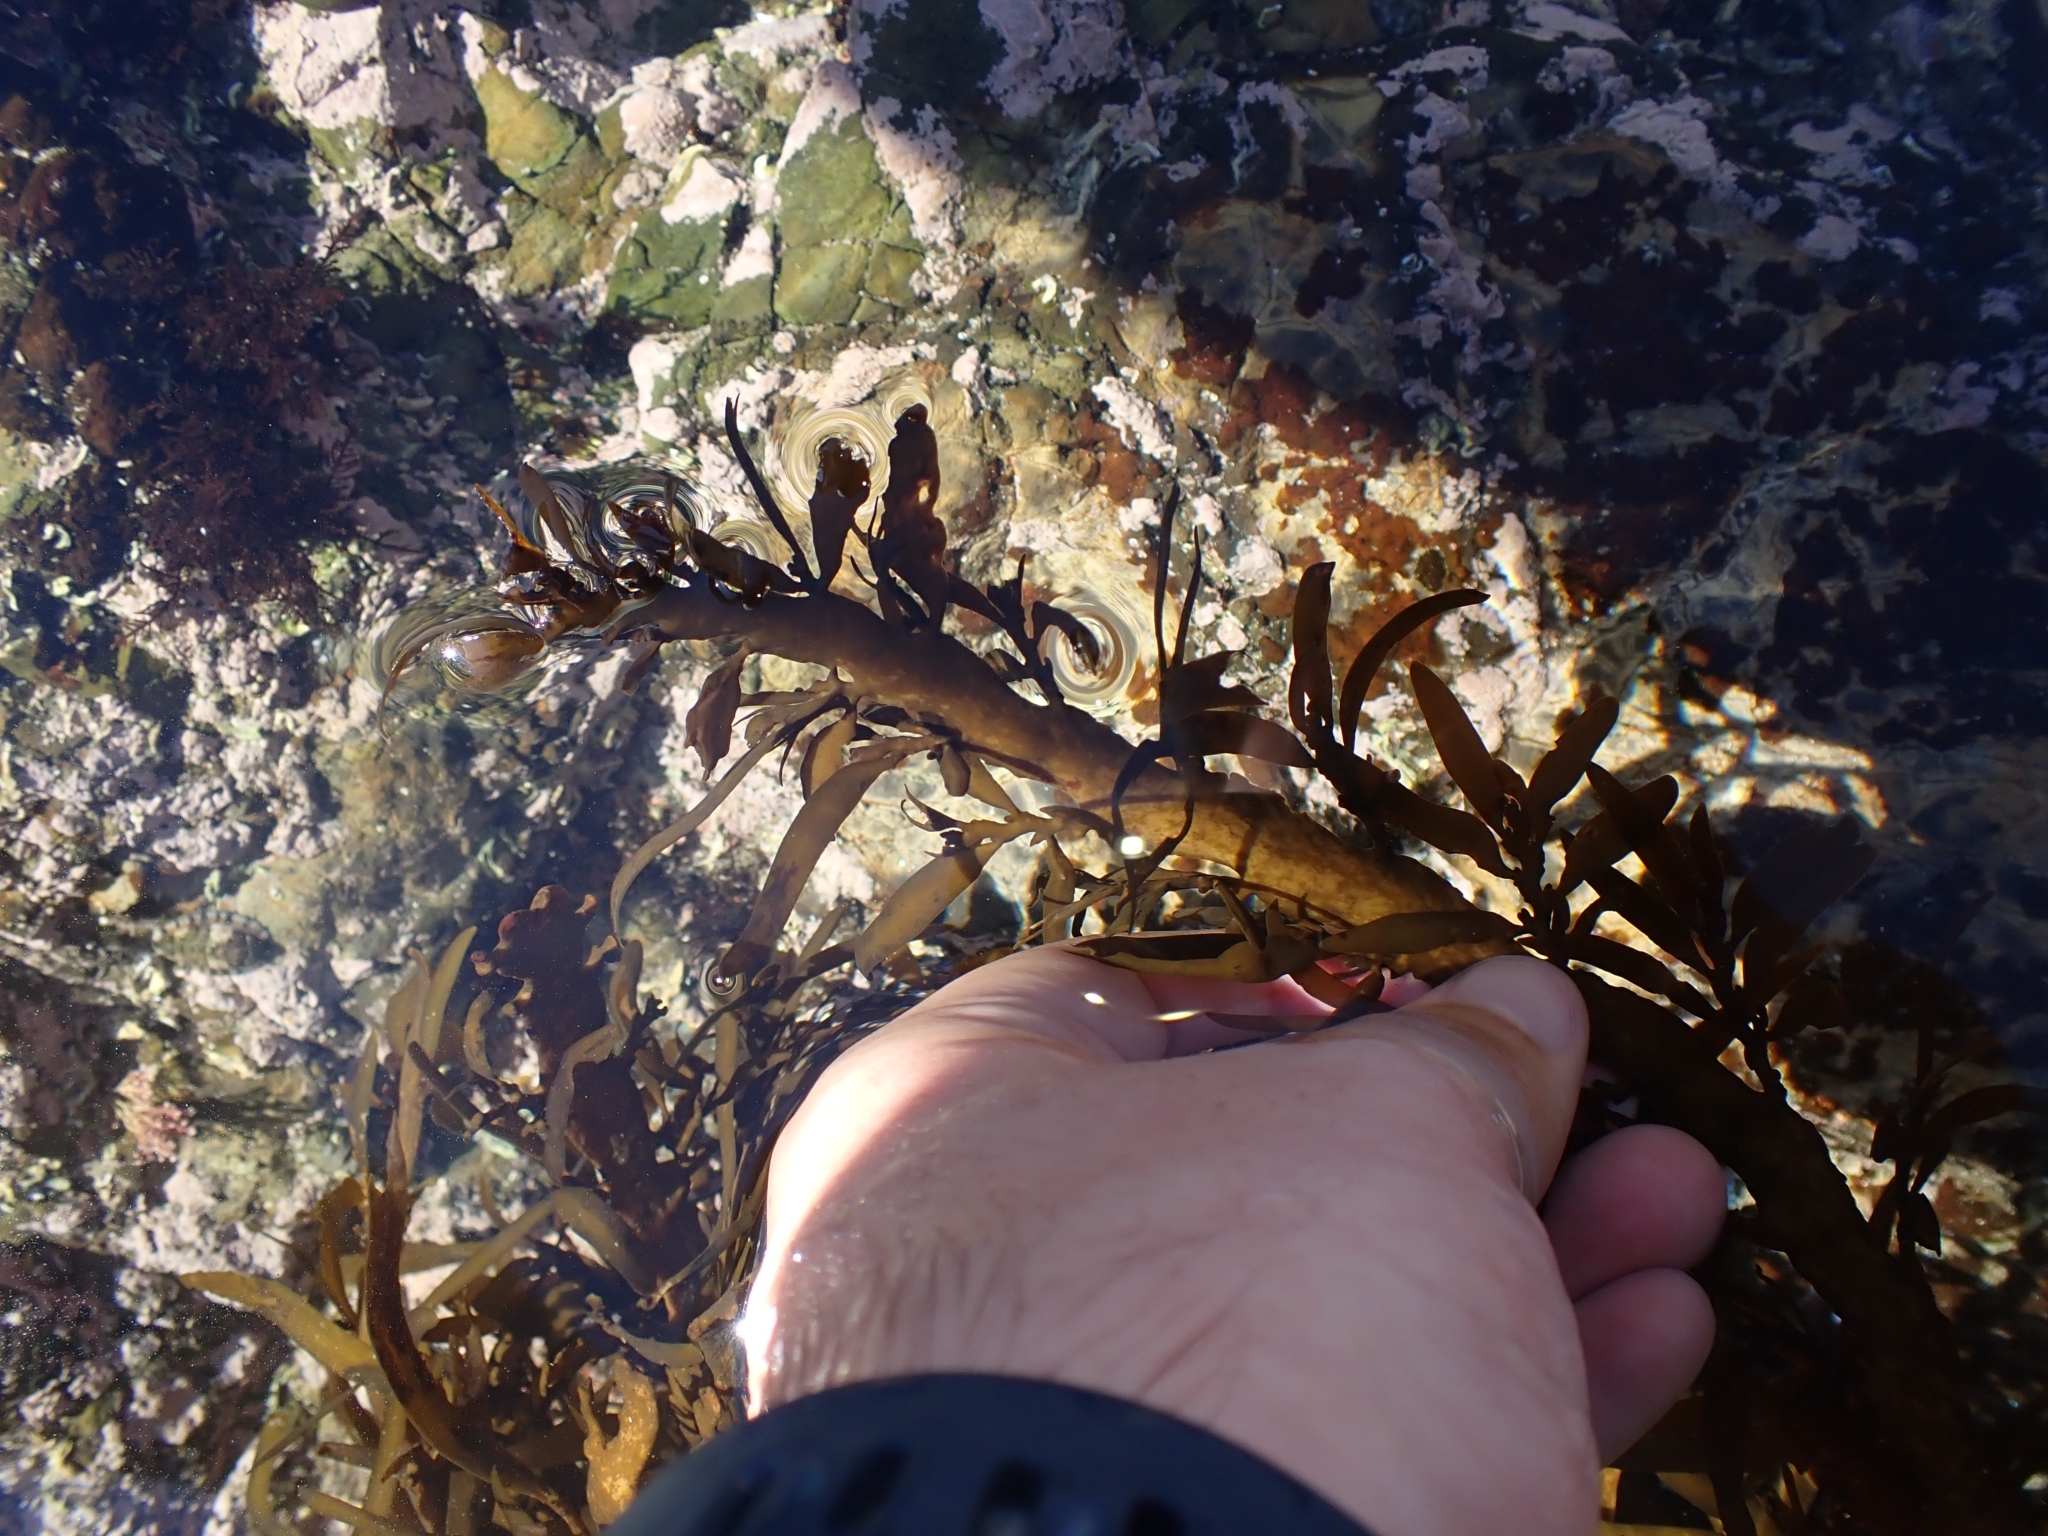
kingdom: Chromista
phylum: Ochrophyta
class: Phaeophyceae
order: Fucales
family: Sargassaceae
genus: Carpophyllum
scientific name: Carpophyllum maschalocarpum
